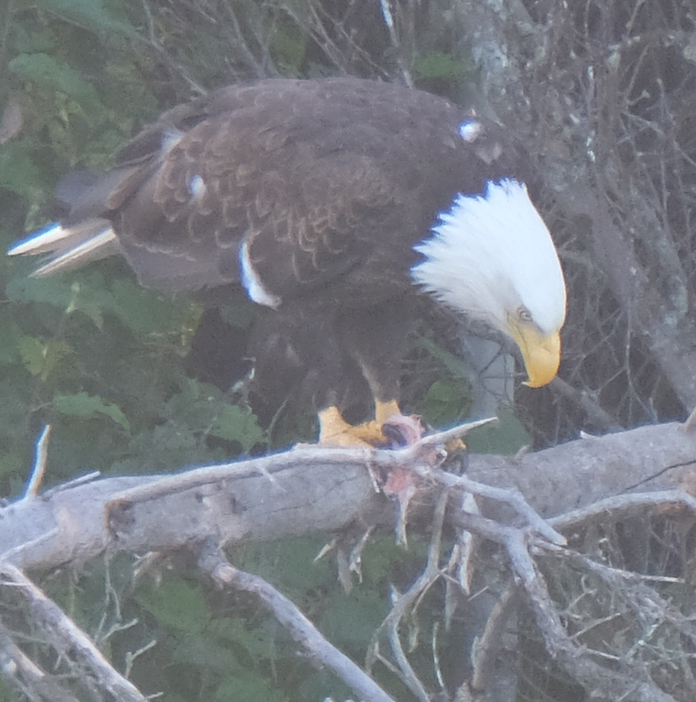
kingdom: Animalia
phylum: Chordata
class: Aves
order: Accipitriformes
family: Accipitridae
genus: Haliaeetus
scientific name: Haliaeetus leucocephalus
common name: Bald eagle
